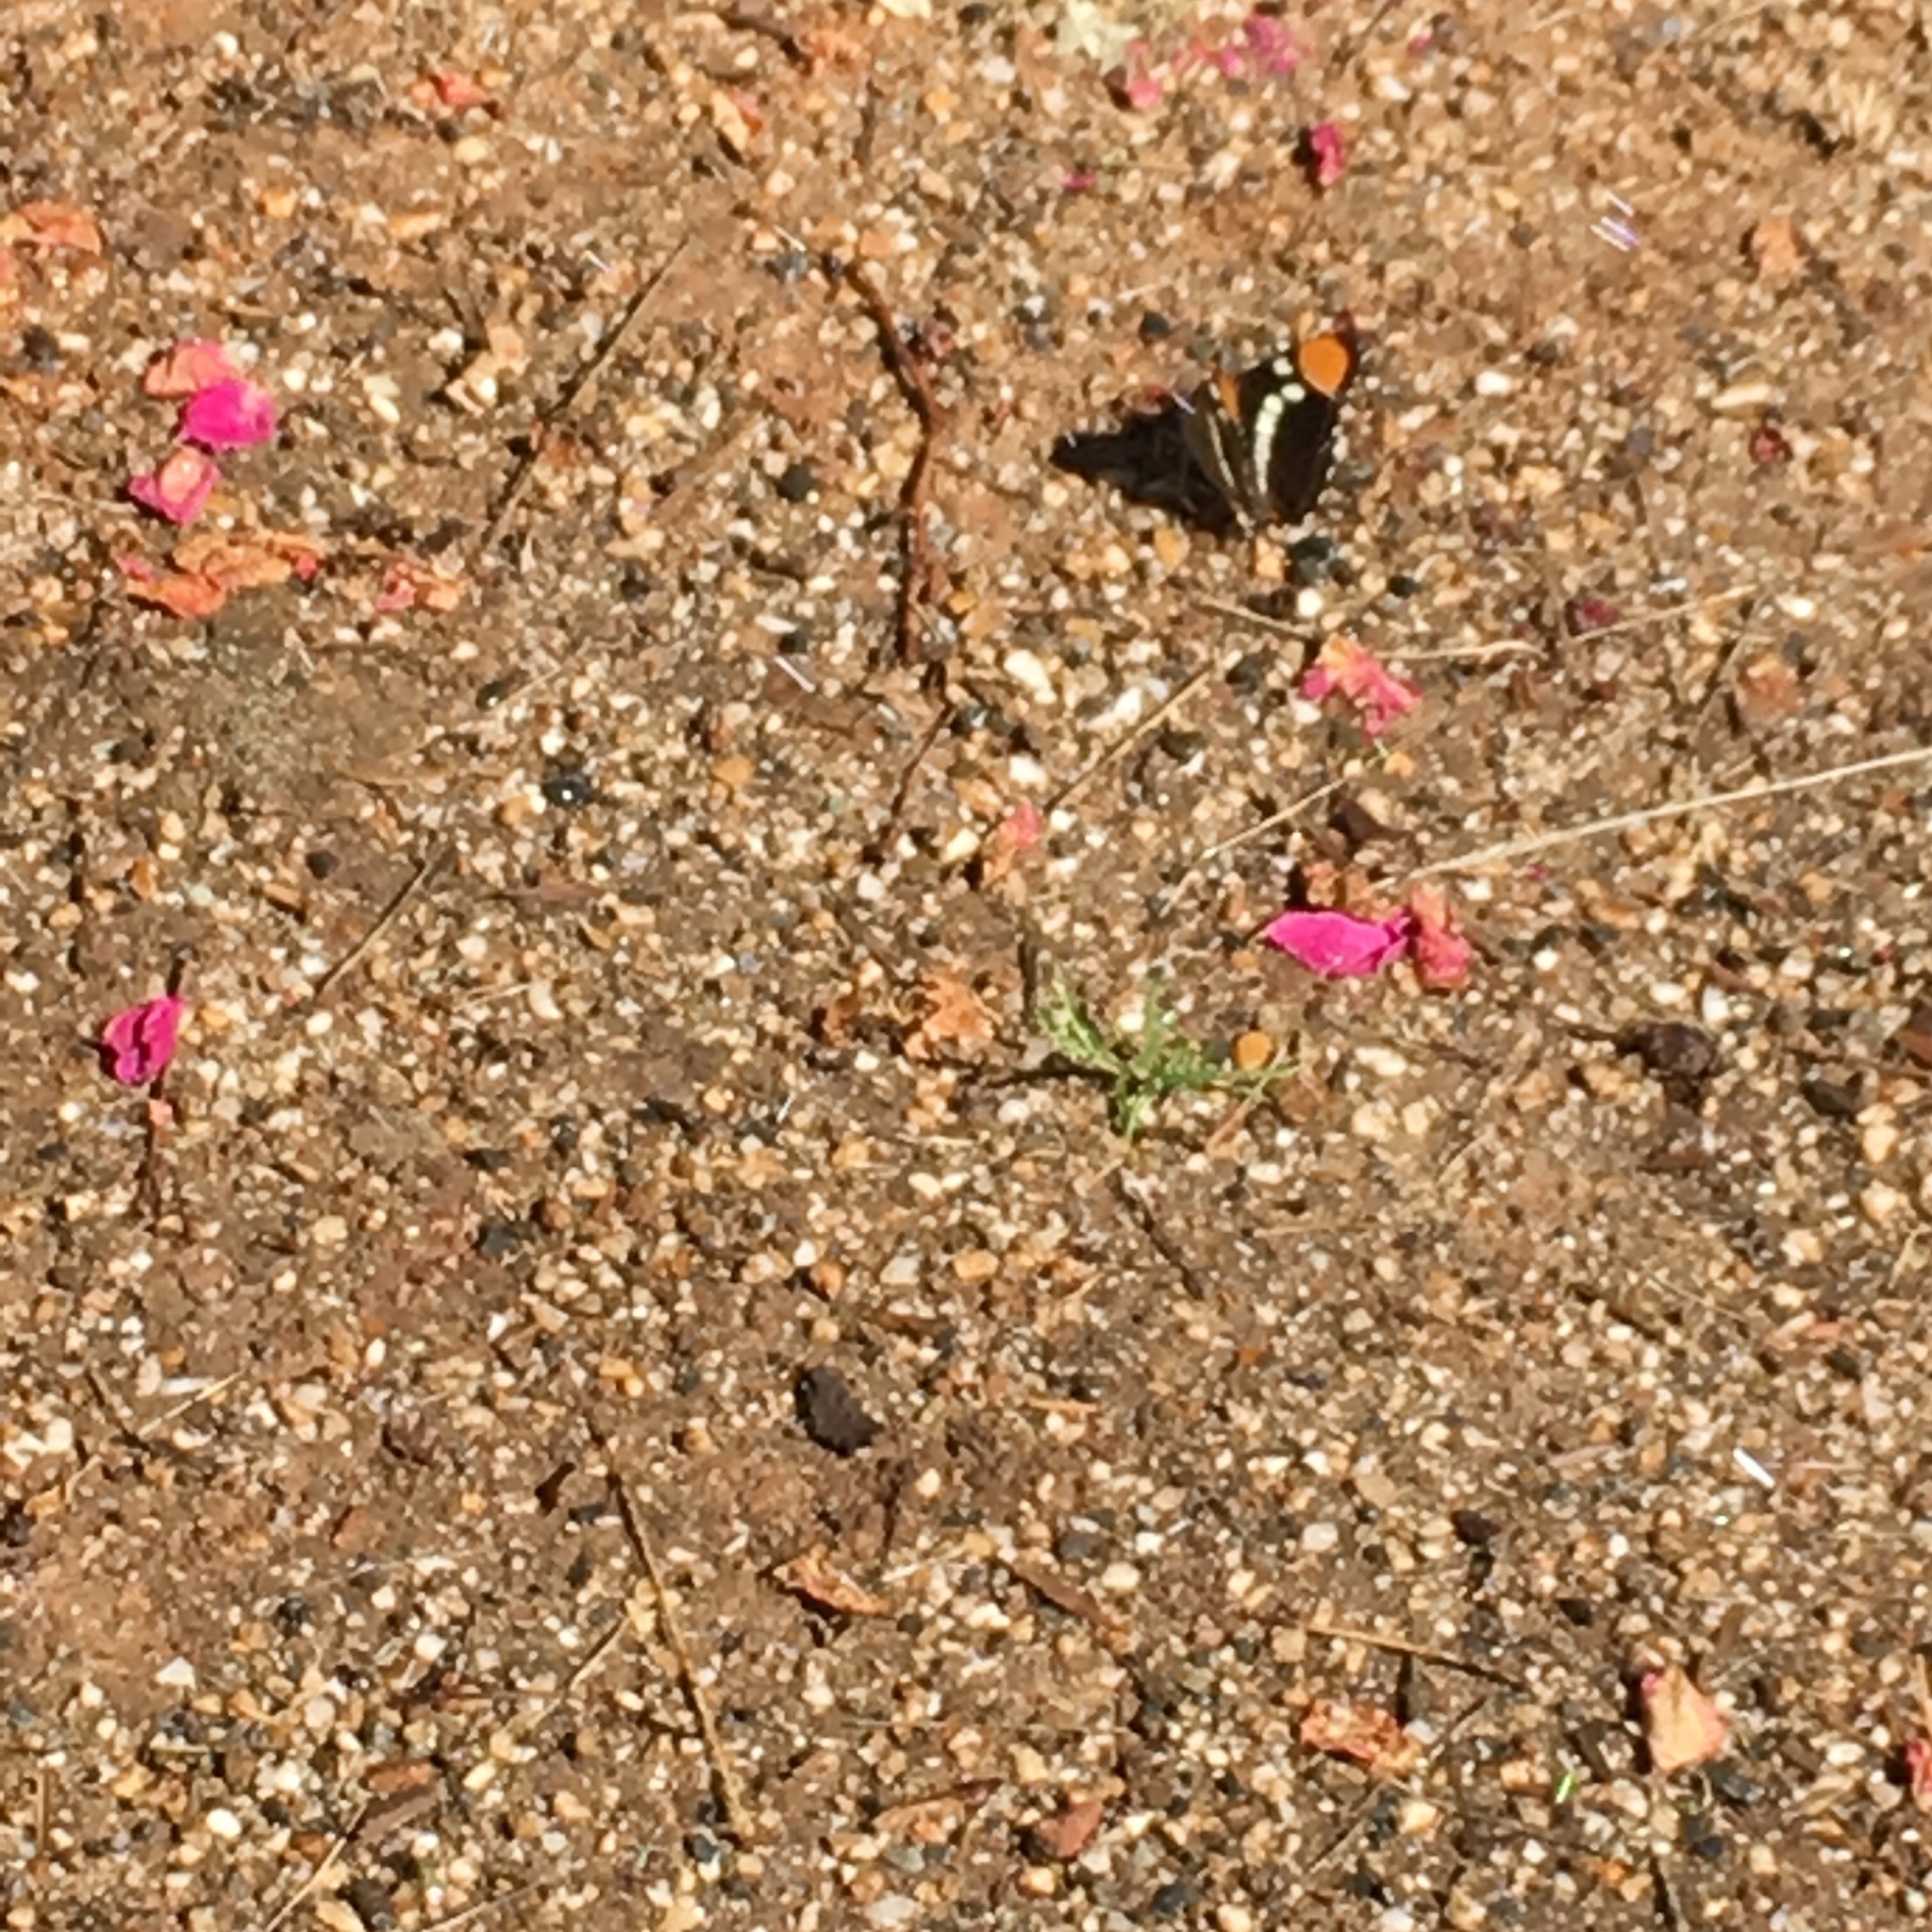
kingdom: Animalia
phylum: Arthropoda
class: Insecta
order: Lepidoptera
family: Nymphalidae
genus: Limenitis
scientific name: Limenitis bredowii
